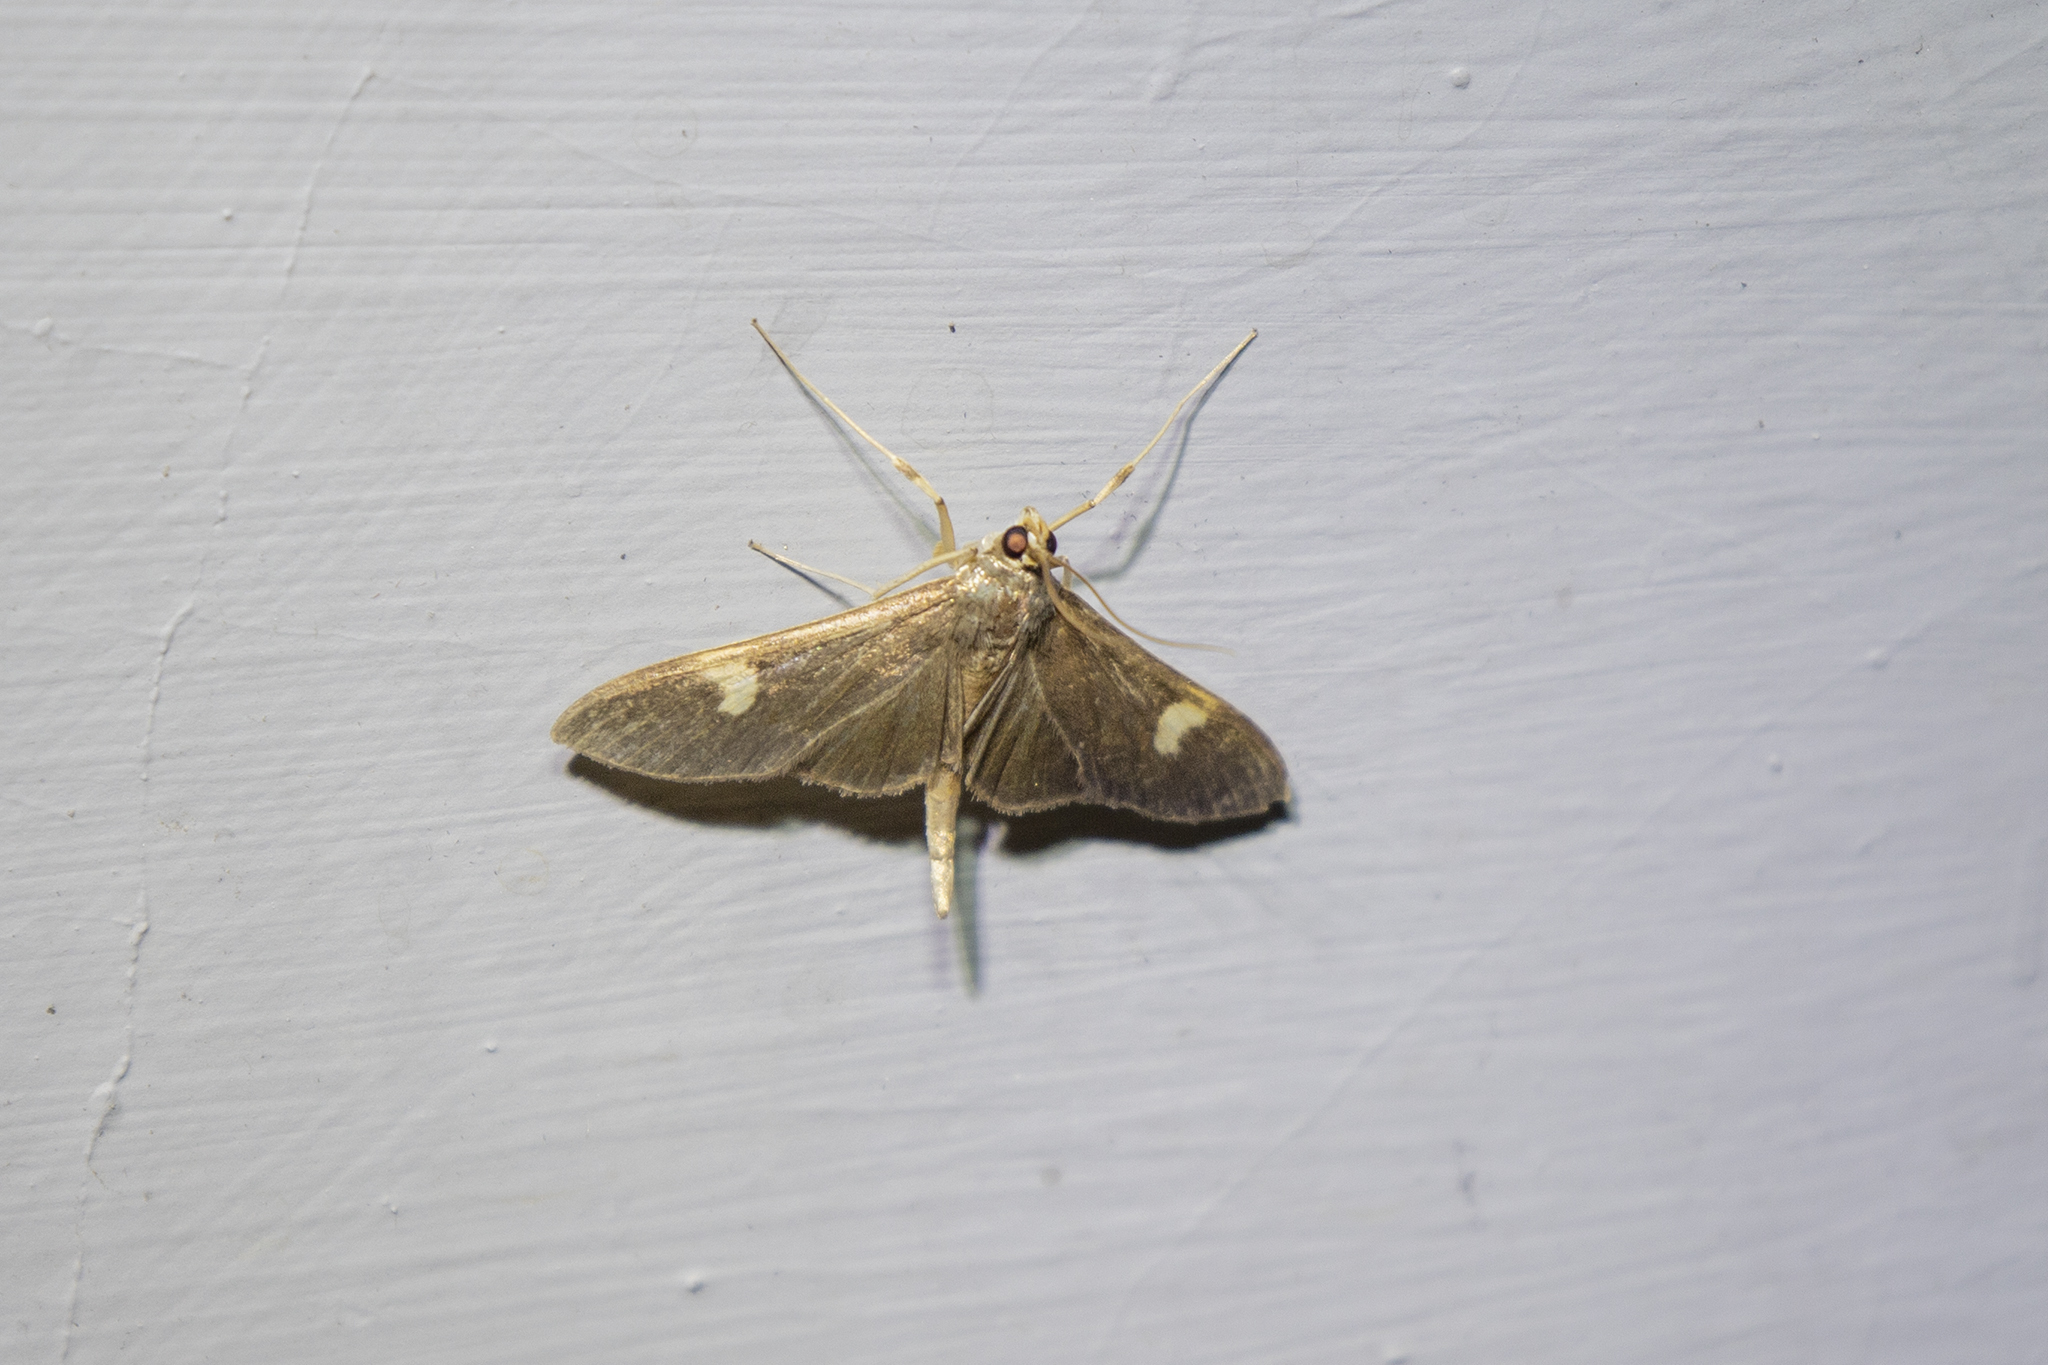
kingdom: Animalia
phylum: Arthropoda
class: Insecta
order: Lepidoptera
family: Crambidae
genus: Nosophora
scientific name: Nosophora dispilalis
